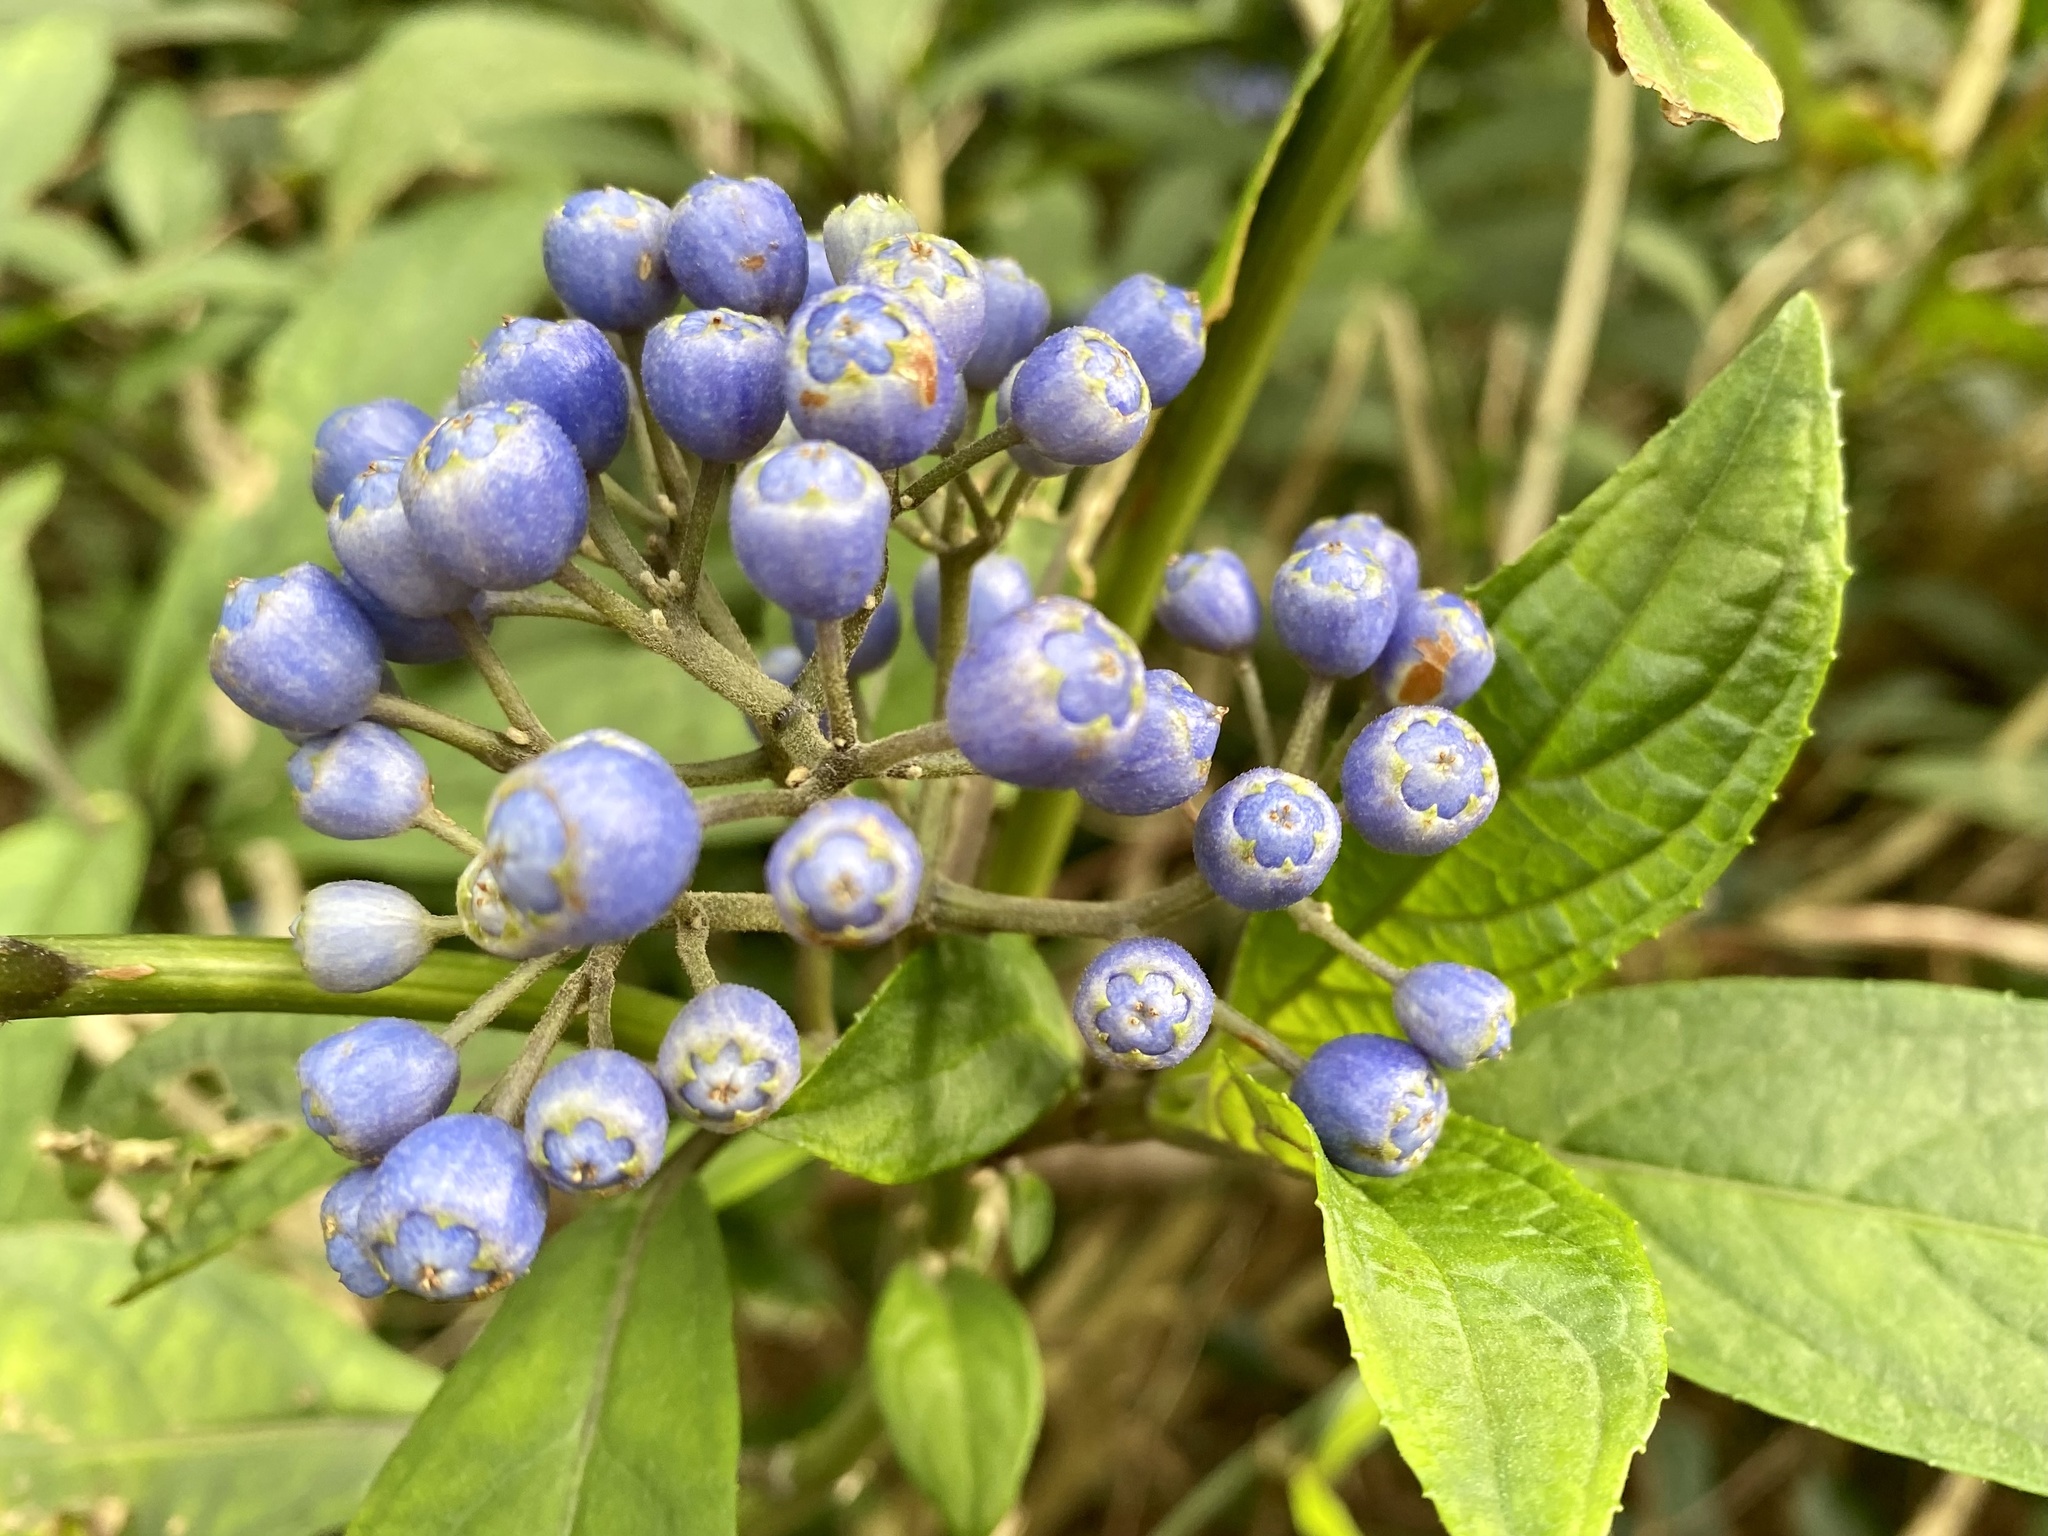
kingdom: Plantae
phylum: Tracheophyta
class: Magnoliopsida
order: Cornales
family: Hydrangeaceae
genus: Hydrangea
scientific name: Hydrangea febrifuga
